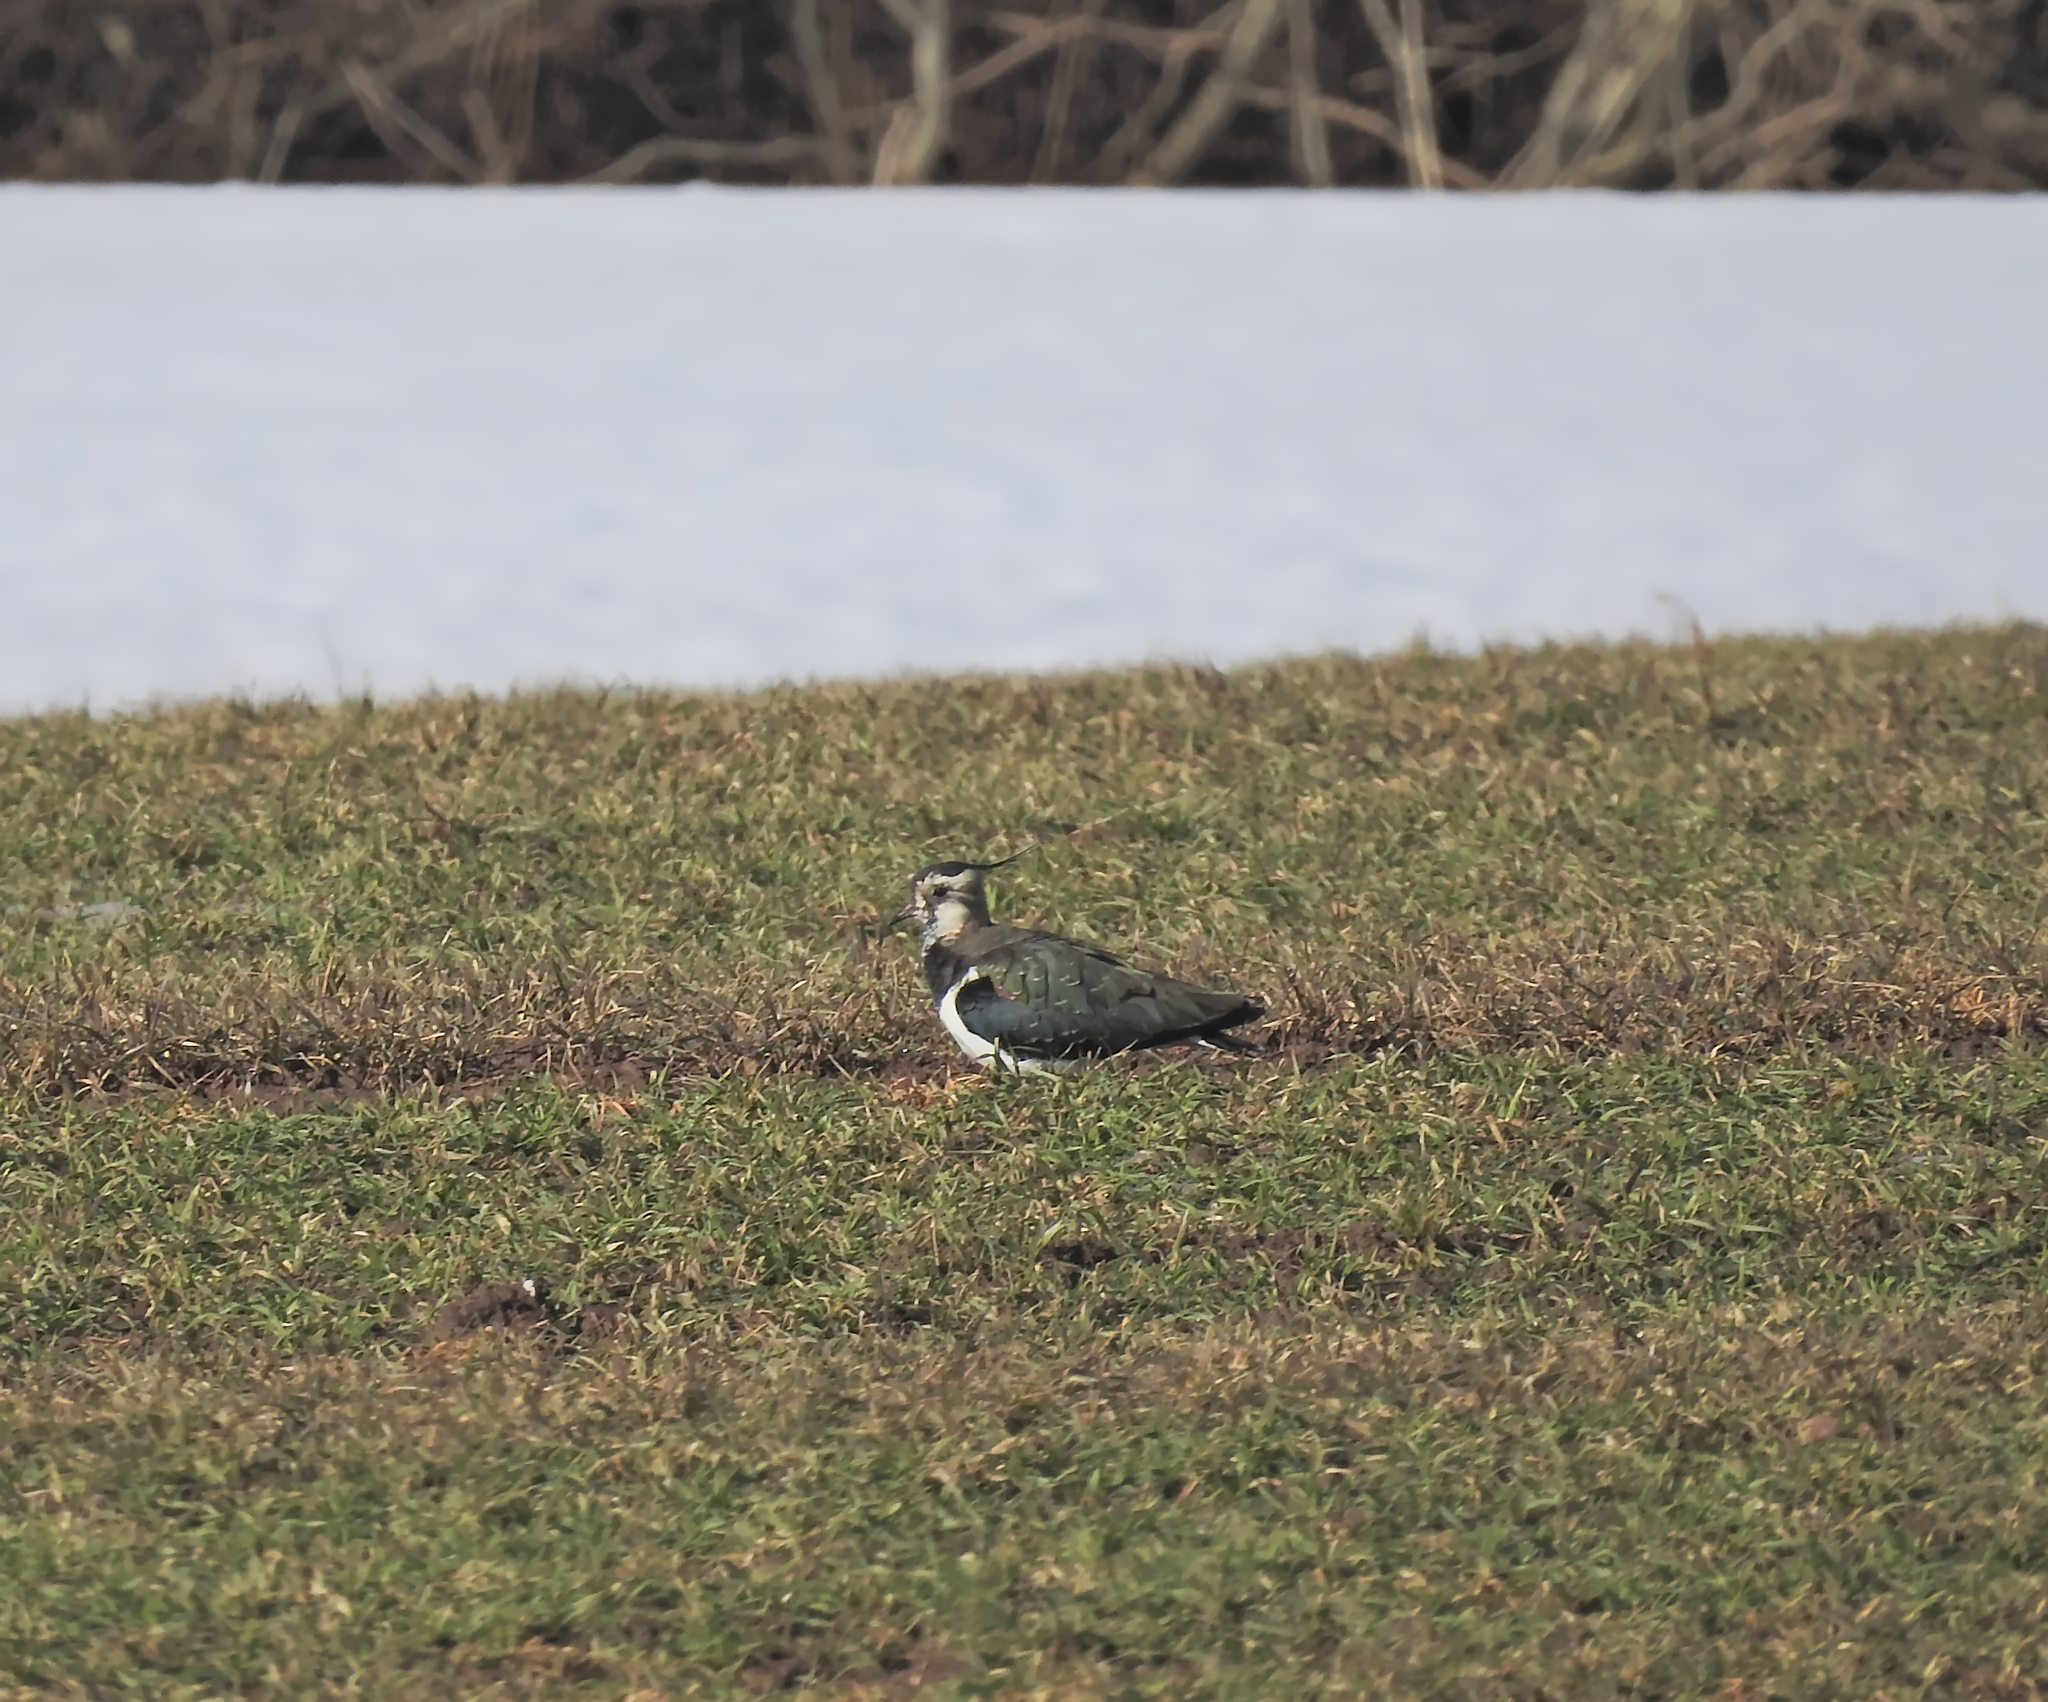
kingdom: Animalia
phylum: Chordata
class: Aves
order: Charadriiformes
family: Charadriidae
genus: Vanellus
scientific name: Vanellus vanellus
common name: Northern lapwing
